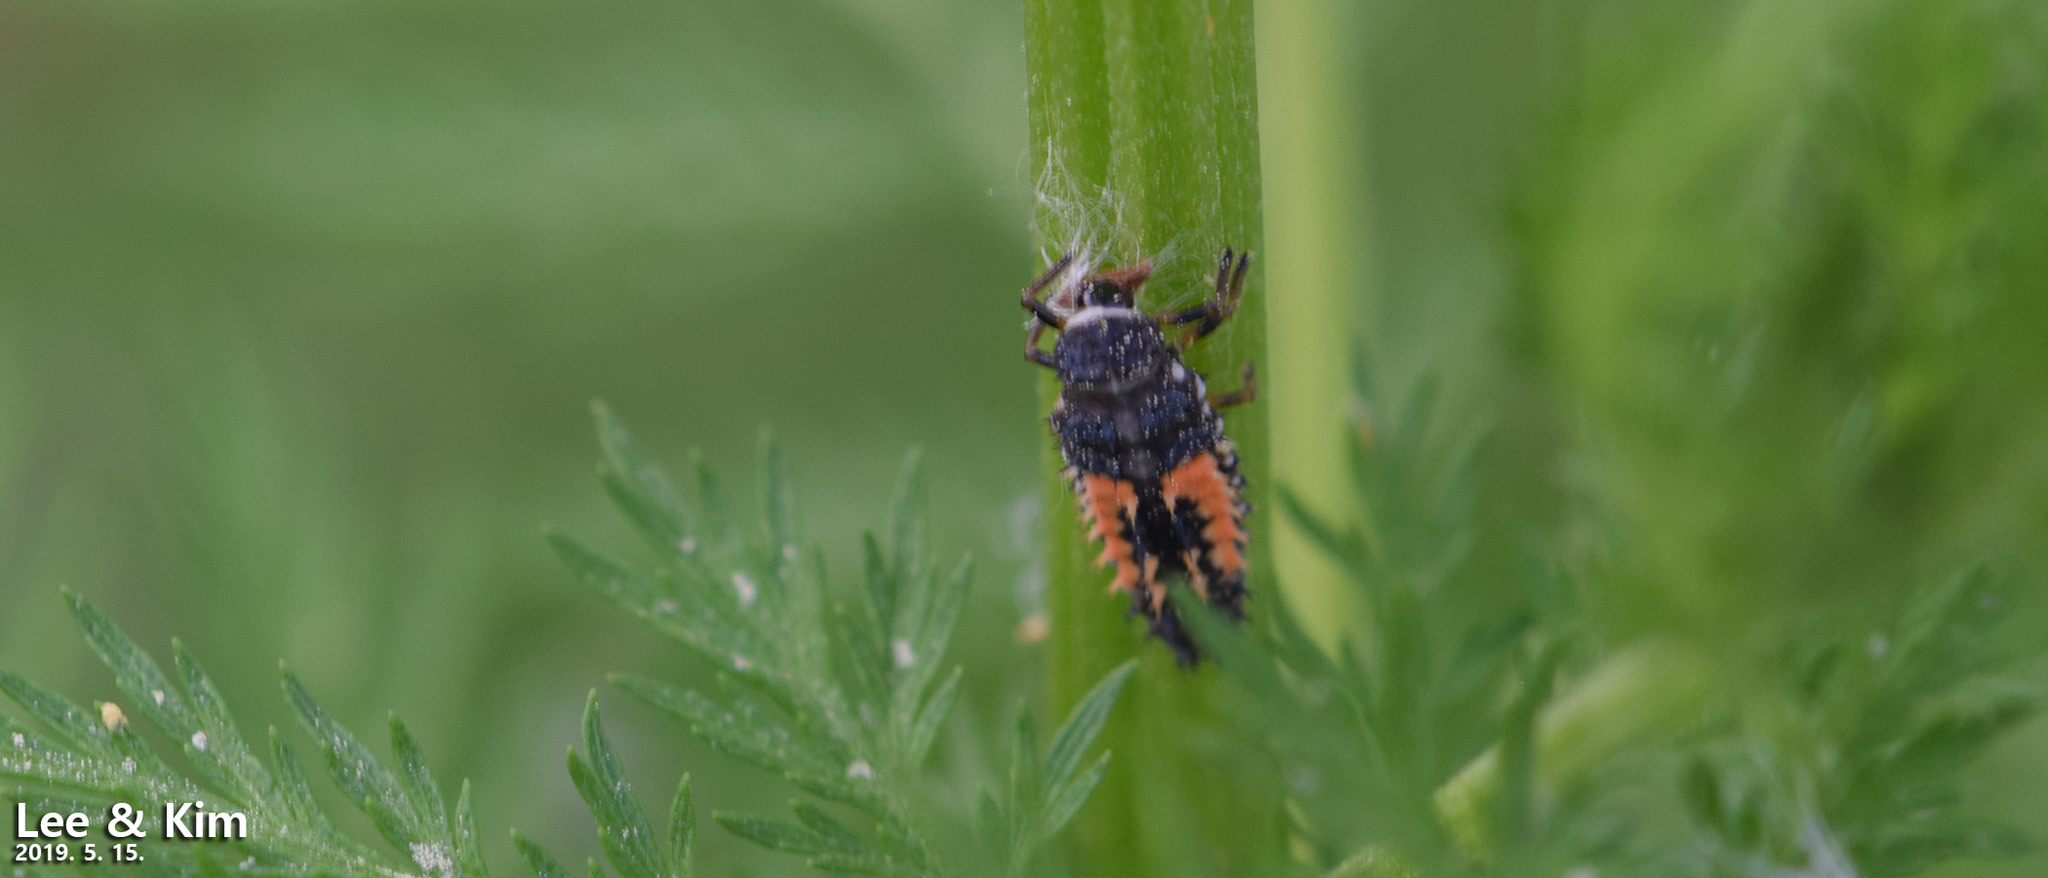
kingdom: Animalia
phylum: Arthropoda
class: Insecta
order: Coleoptera
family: Coccinellidae
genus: Harmonia
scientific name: Harmonia axyridis
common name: Harlequin ladybird
